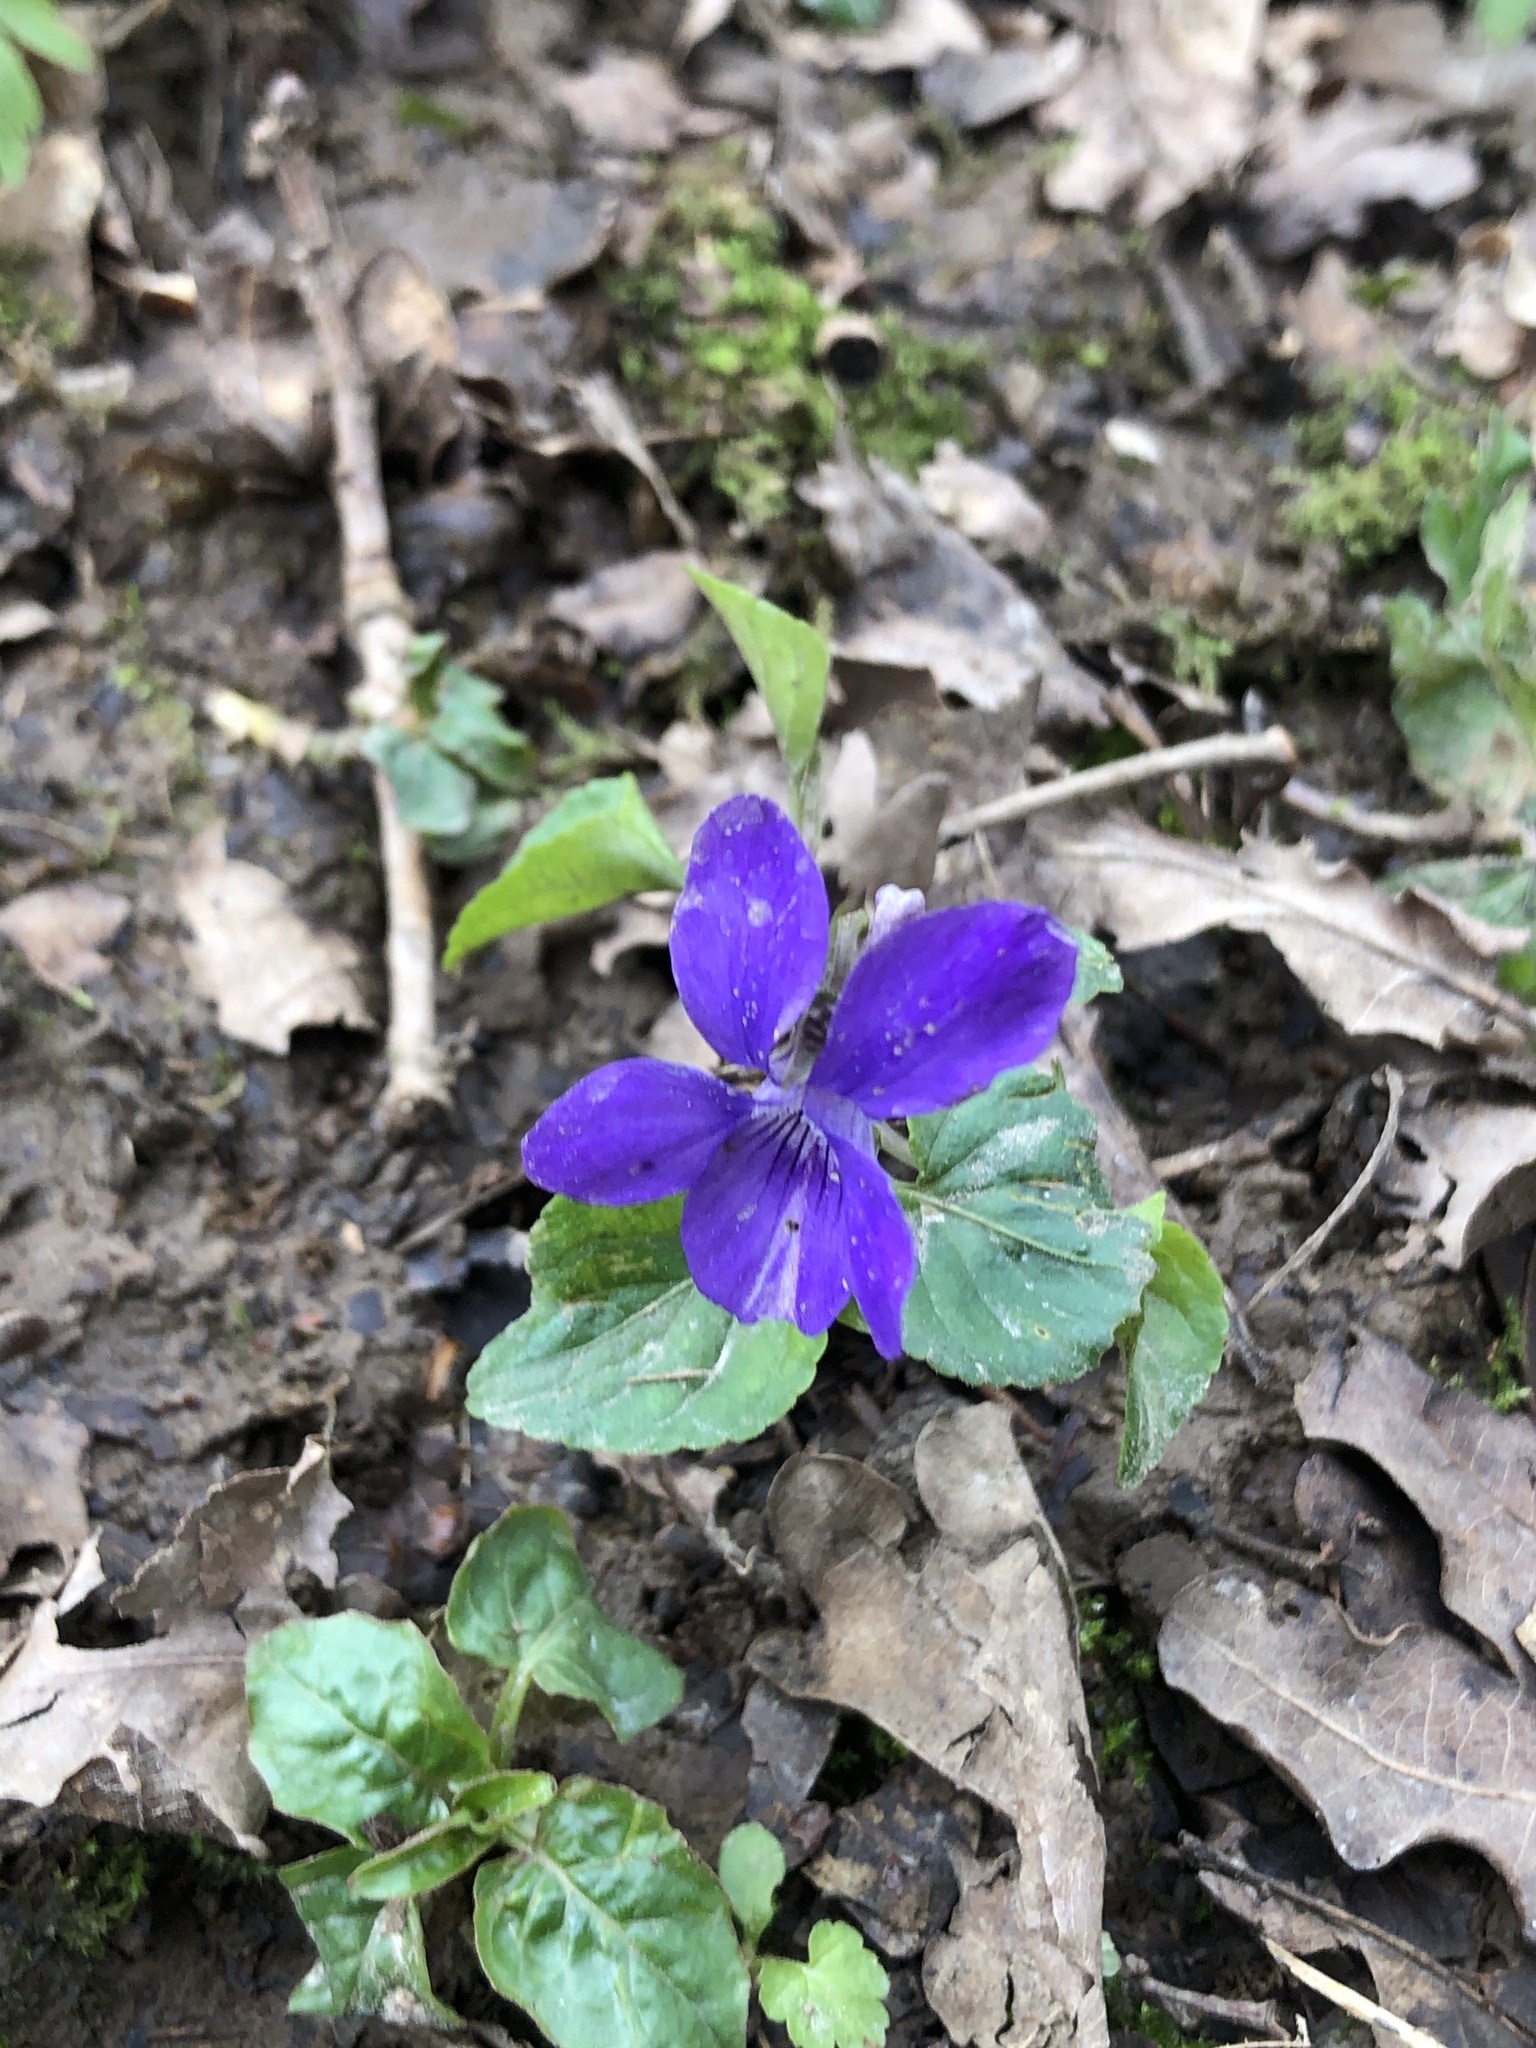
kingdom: Plantae
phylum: Tracheophyta
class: Magnoliopsida
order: Malpighiales
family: Violaceae
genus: Viola
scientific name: Viola riviniana
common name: Common dog-violet
